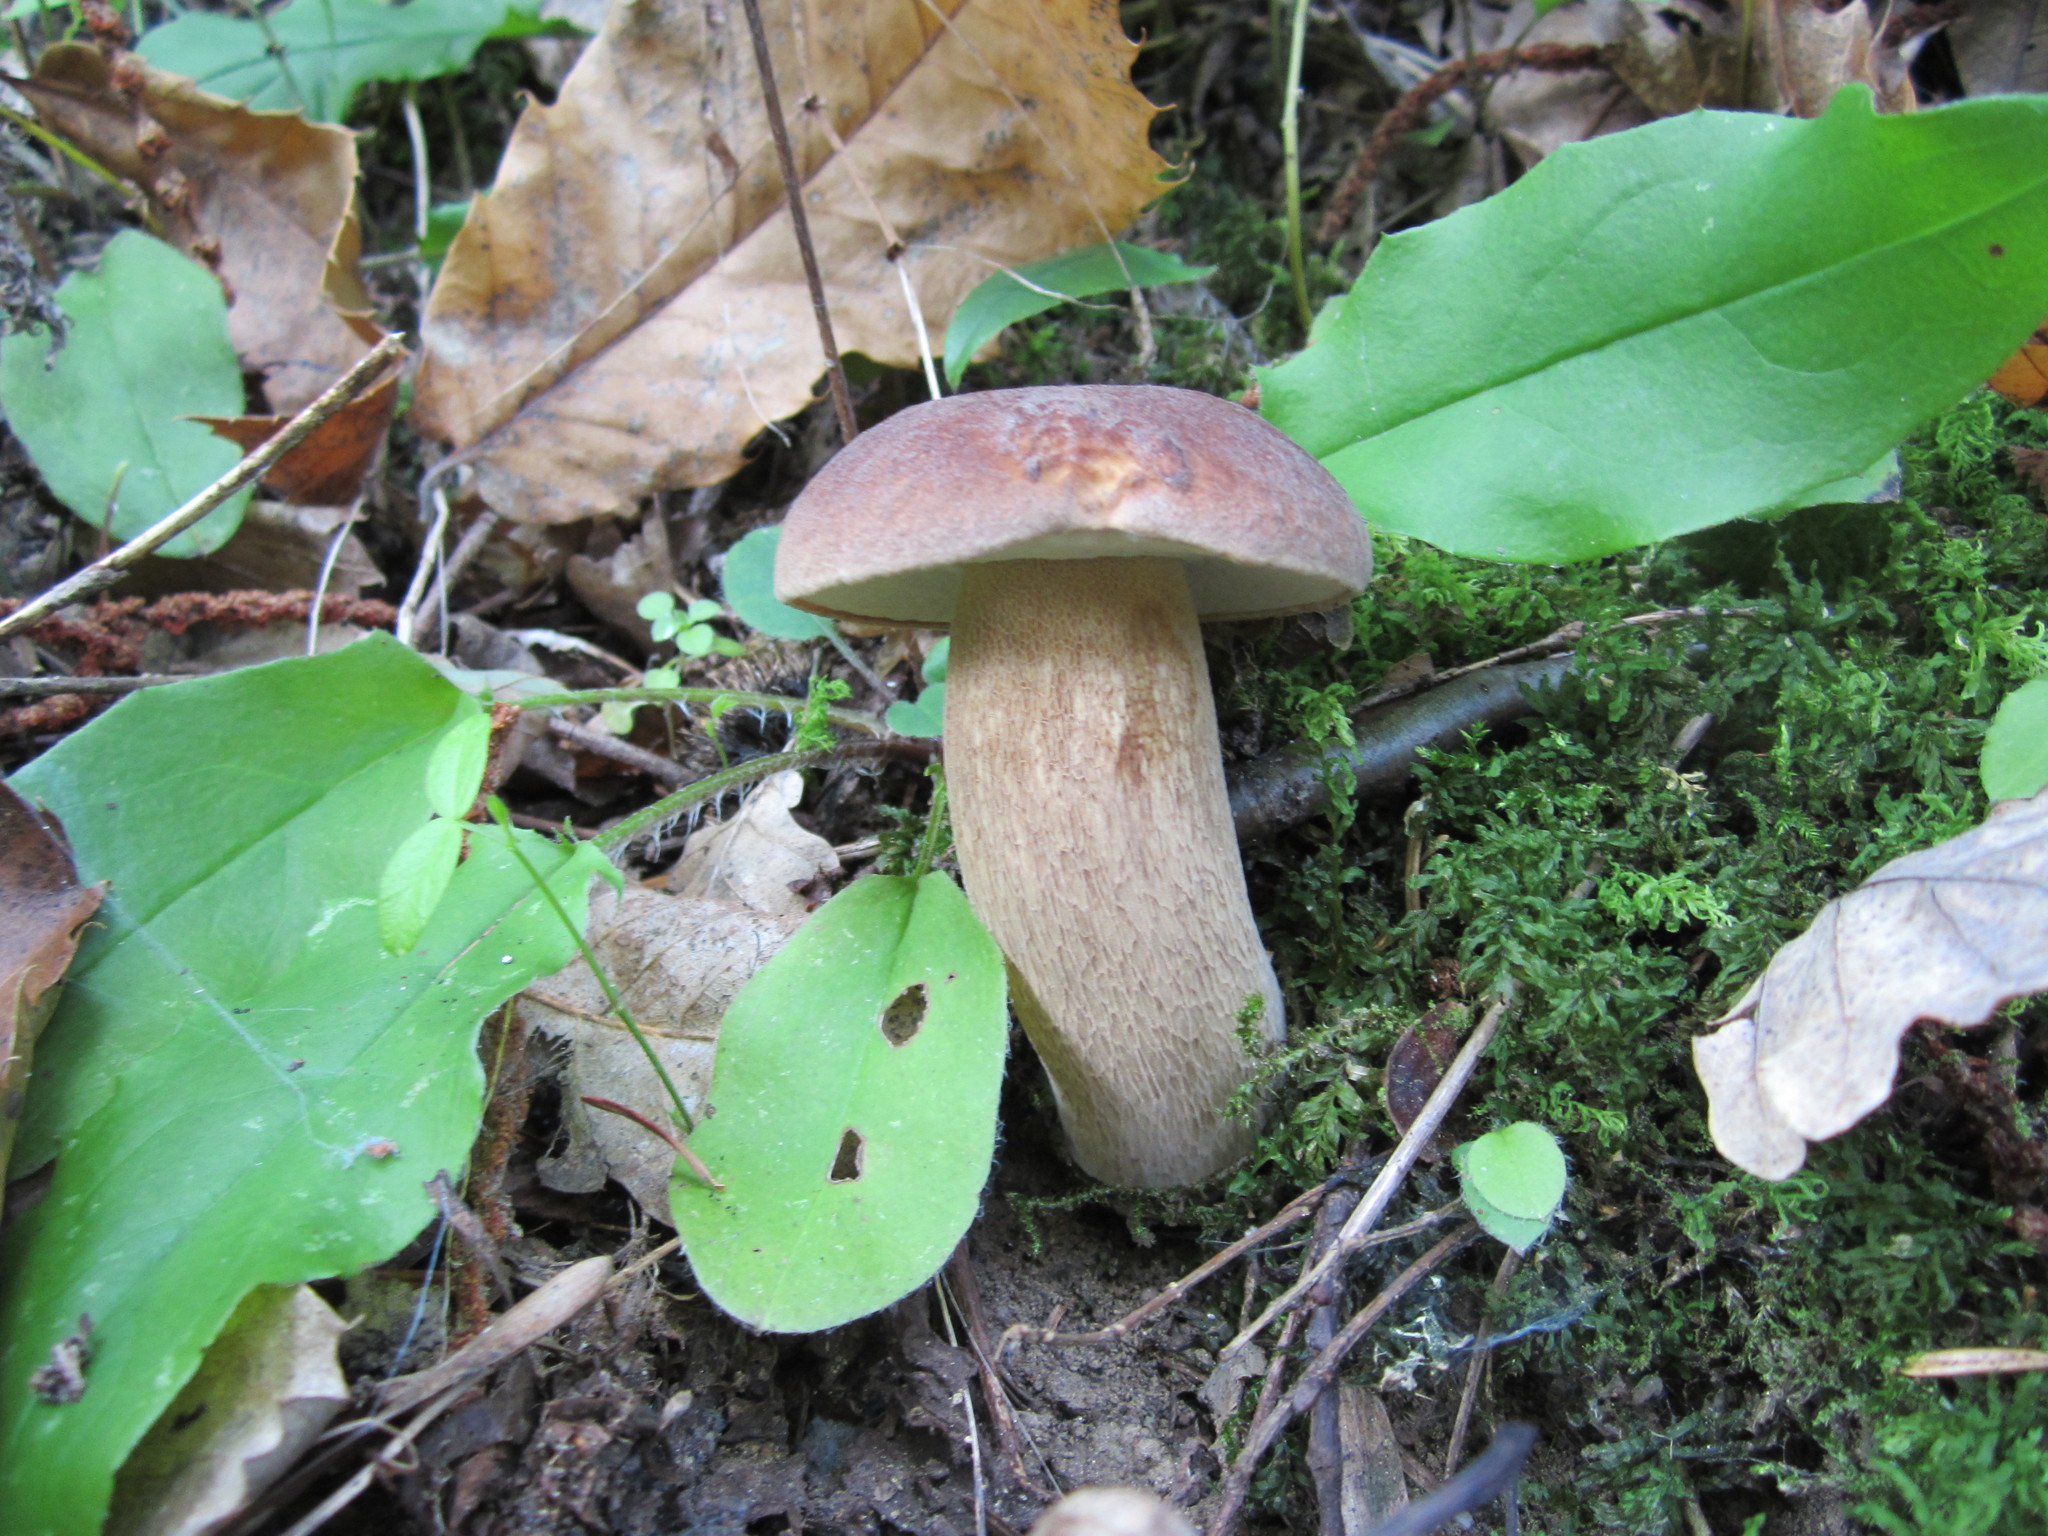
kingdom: Fungi
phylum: Basidiomycota
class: Agaricomycetes
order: Boletales
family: Boletaceae
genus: Boletus
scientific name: Boletus reticulatus
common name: Summer bolete
